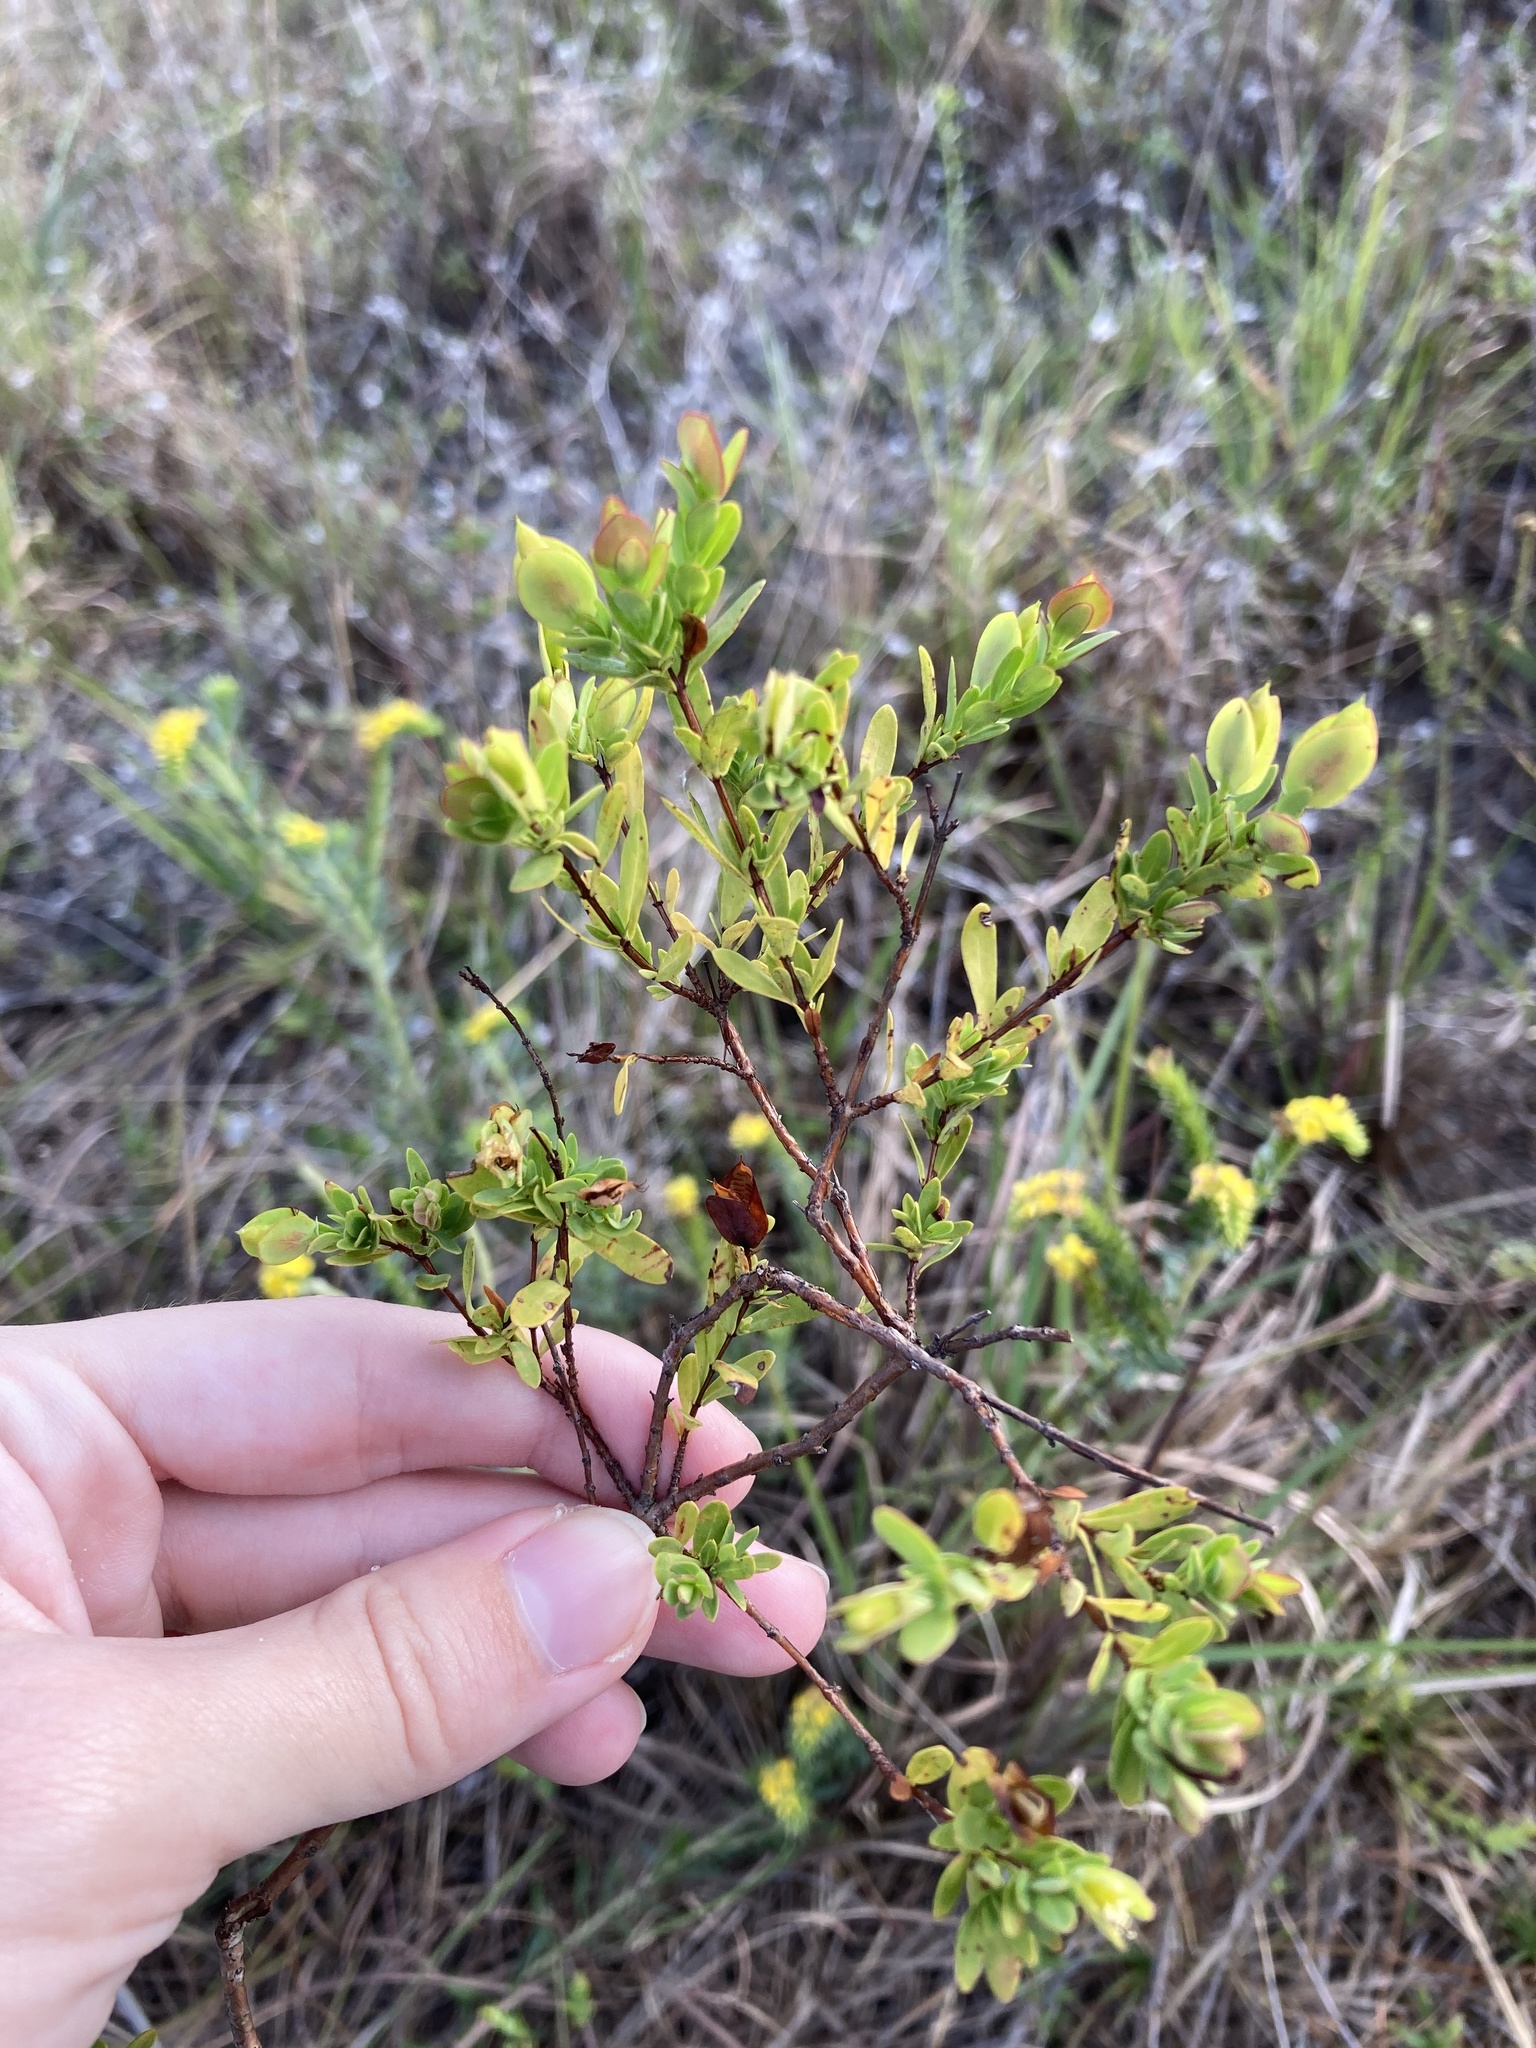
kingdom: Plantae
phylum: Tracheophyta
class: Magnoliopsida
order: Malpighiales
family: Hypericaceae
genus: Hypericum
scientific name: Hypericum hypericoides
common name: St. andrew's cross
